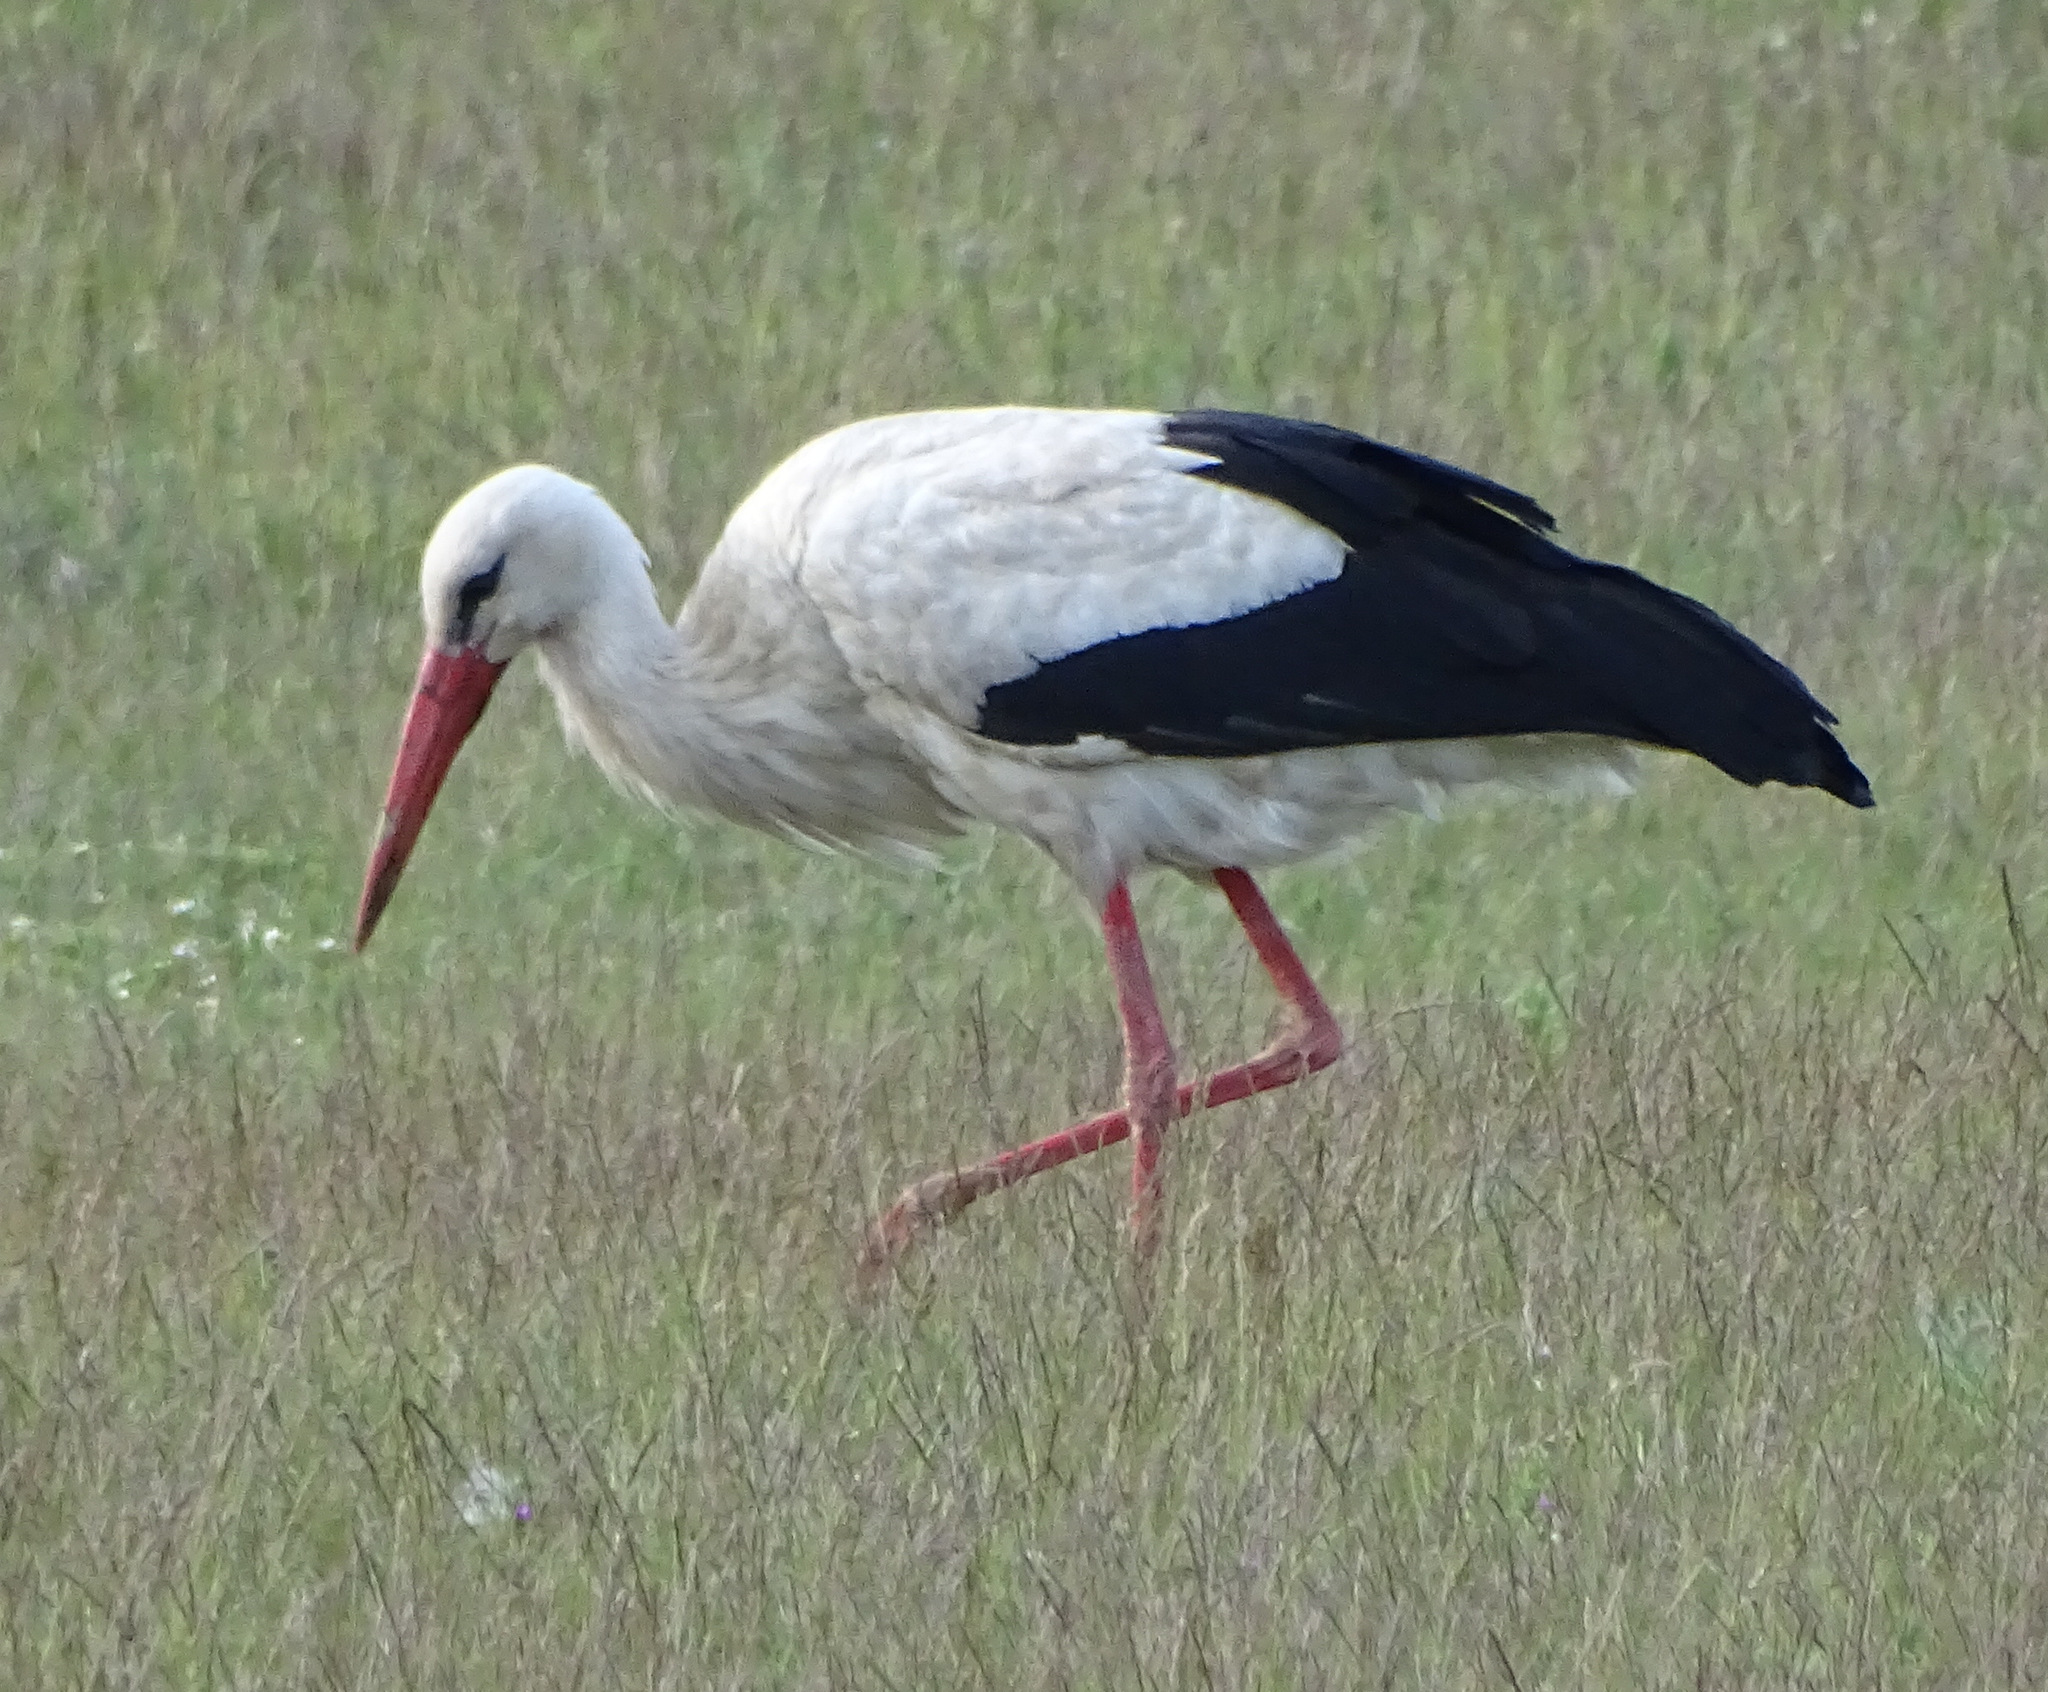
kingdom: Animalia
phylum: Chordata
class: Aves
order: Ciconiiformes
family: Ciconiidae
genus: Ciconia
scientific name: Ciconia ciconia
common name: White stork
